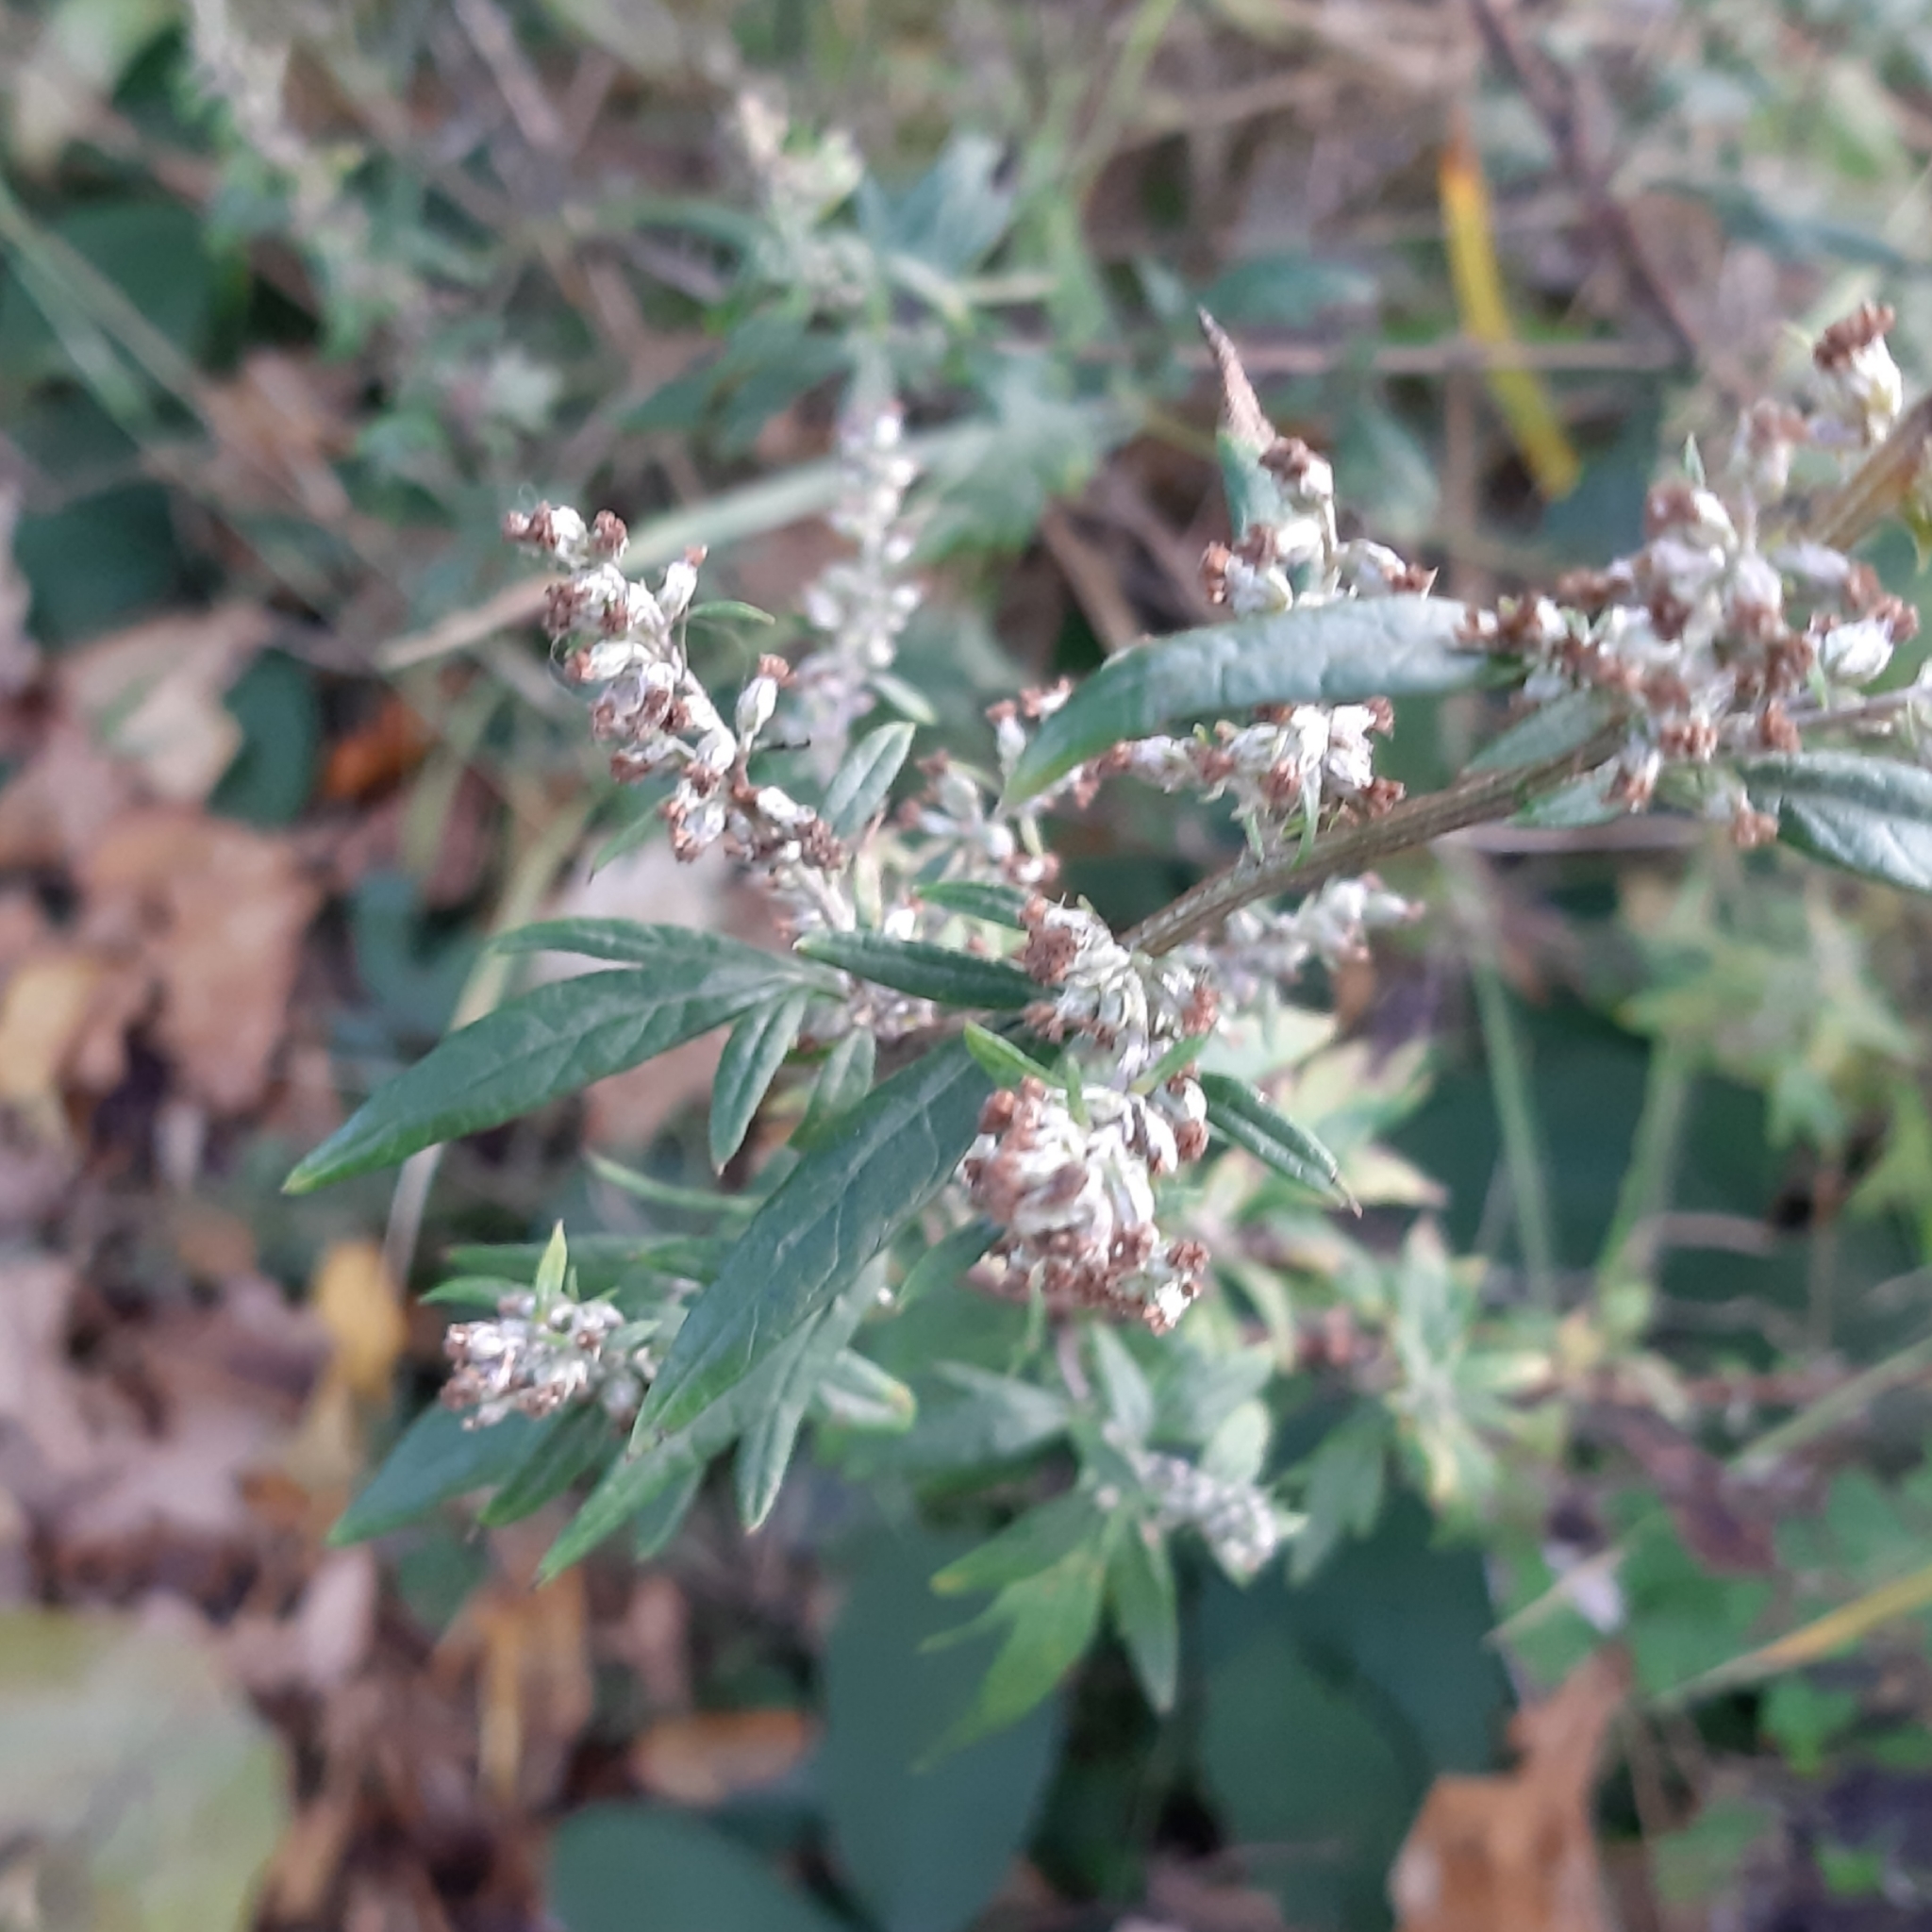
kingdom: Plantae
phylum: Tracheophyta
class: Magnoliopsida
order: Asterales
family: Asteraceae
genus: Artemisia
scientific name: Artemisia vulgaris
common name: Mugwort
